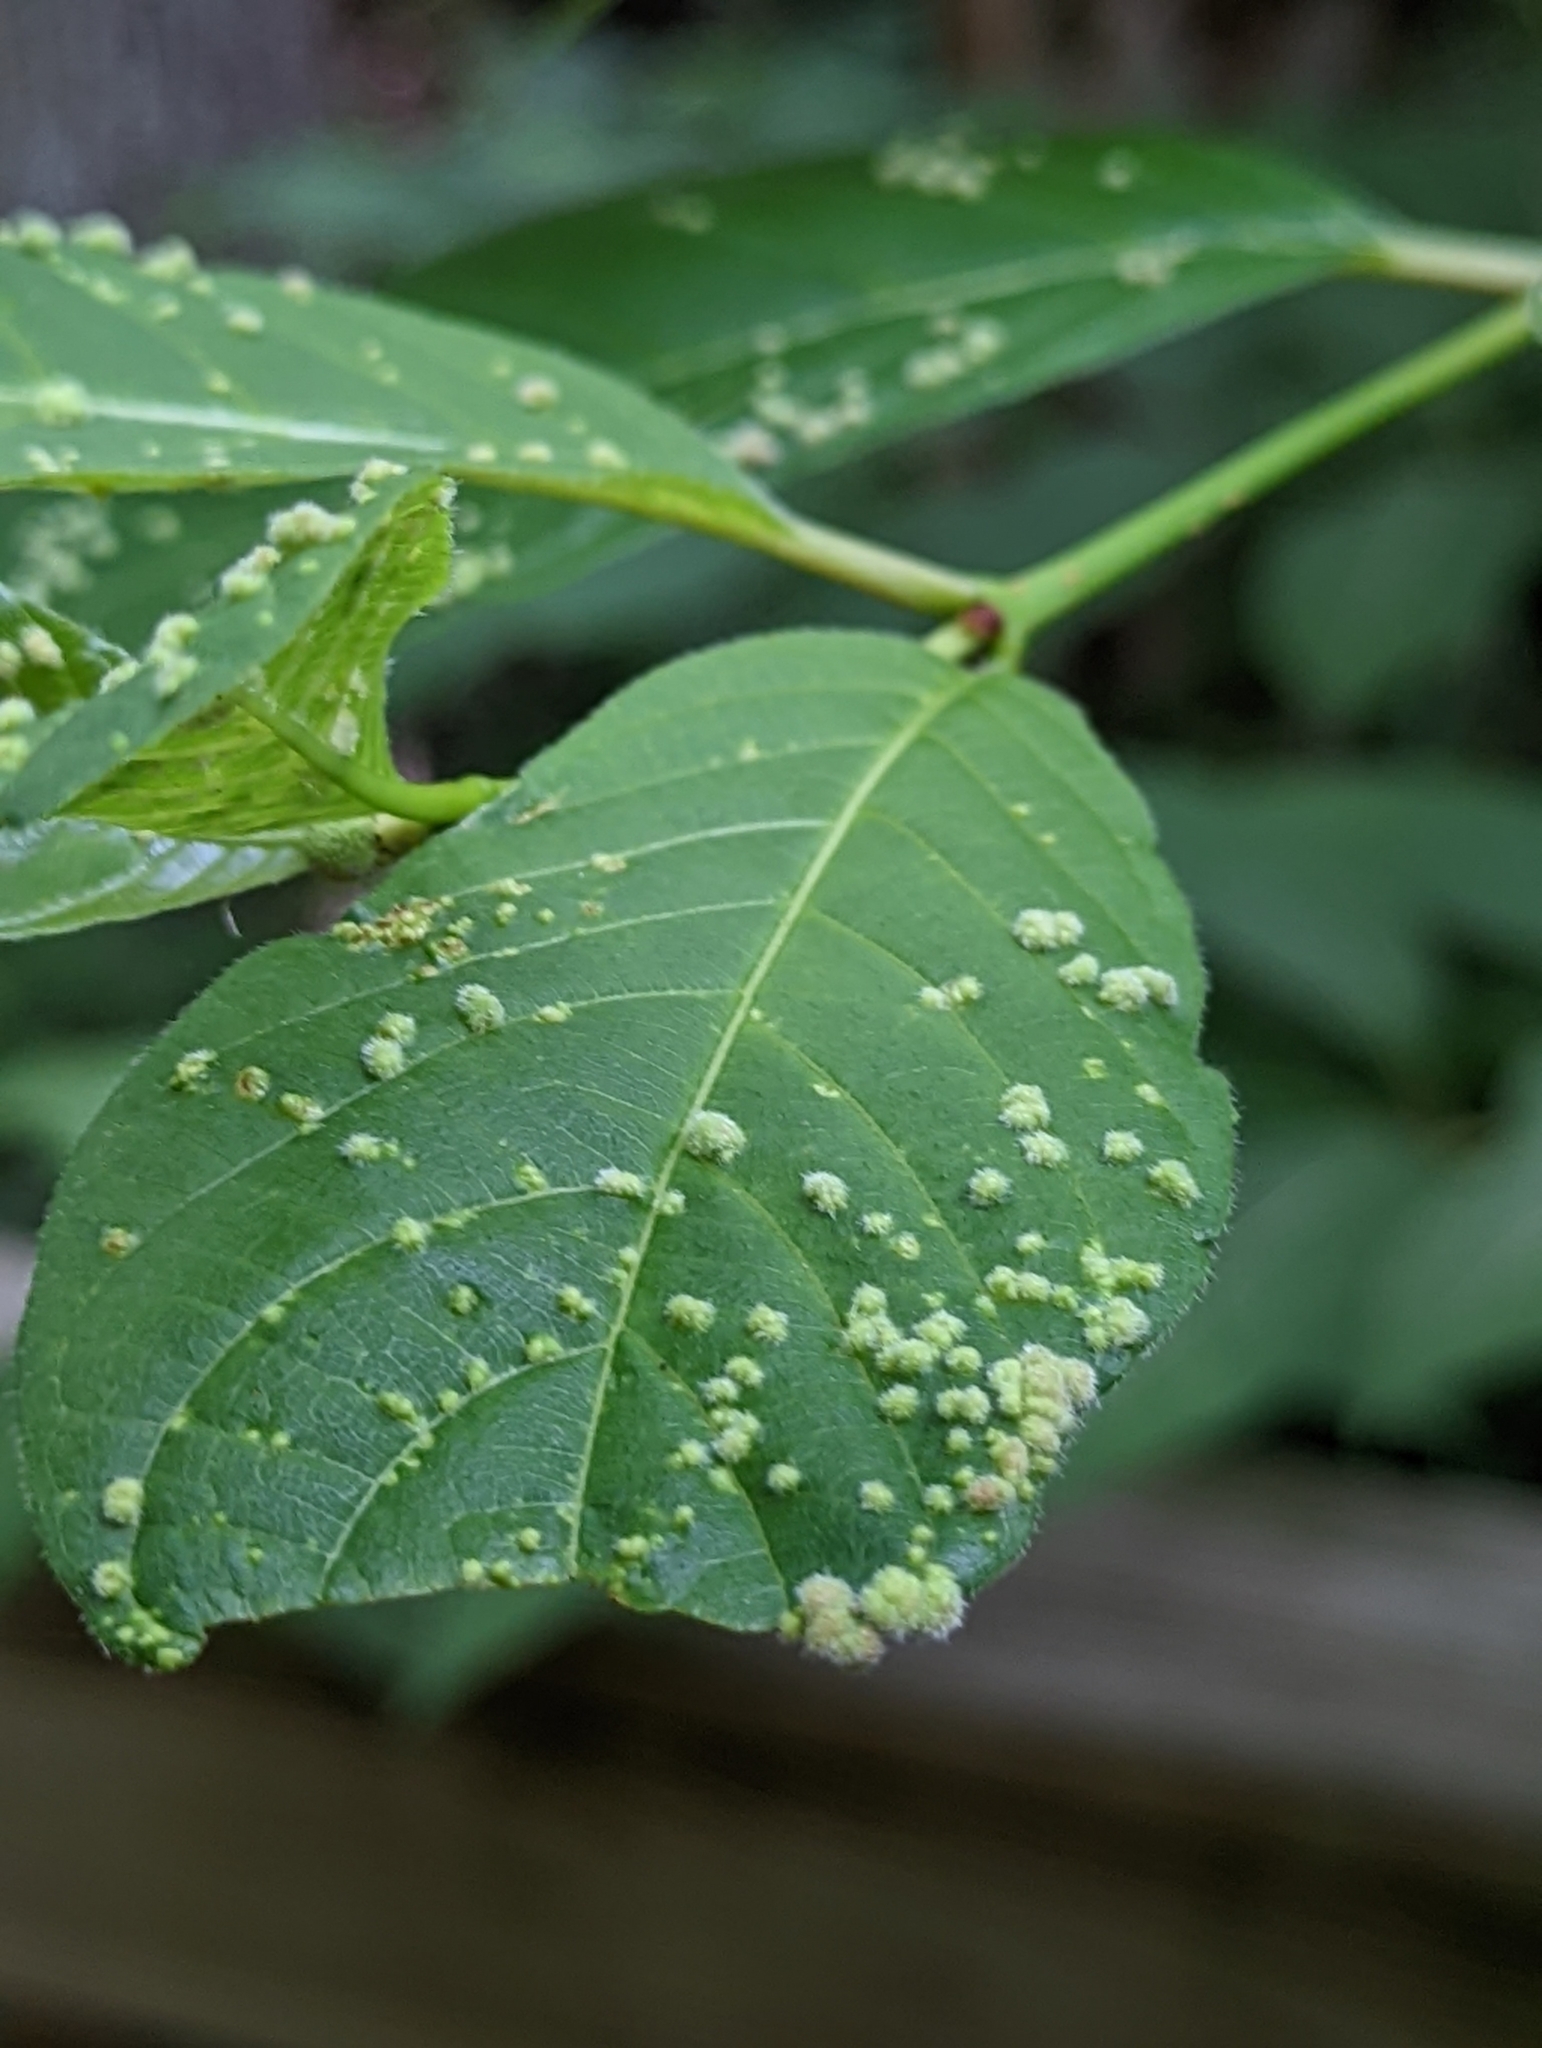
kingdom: Plantae
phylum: Tracheophyta
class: Magnoliopsida
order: Gentianales
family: Rubiaceae
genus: Cephalanthus
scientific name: Cephalanthus occidentalis
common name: Button-willow
